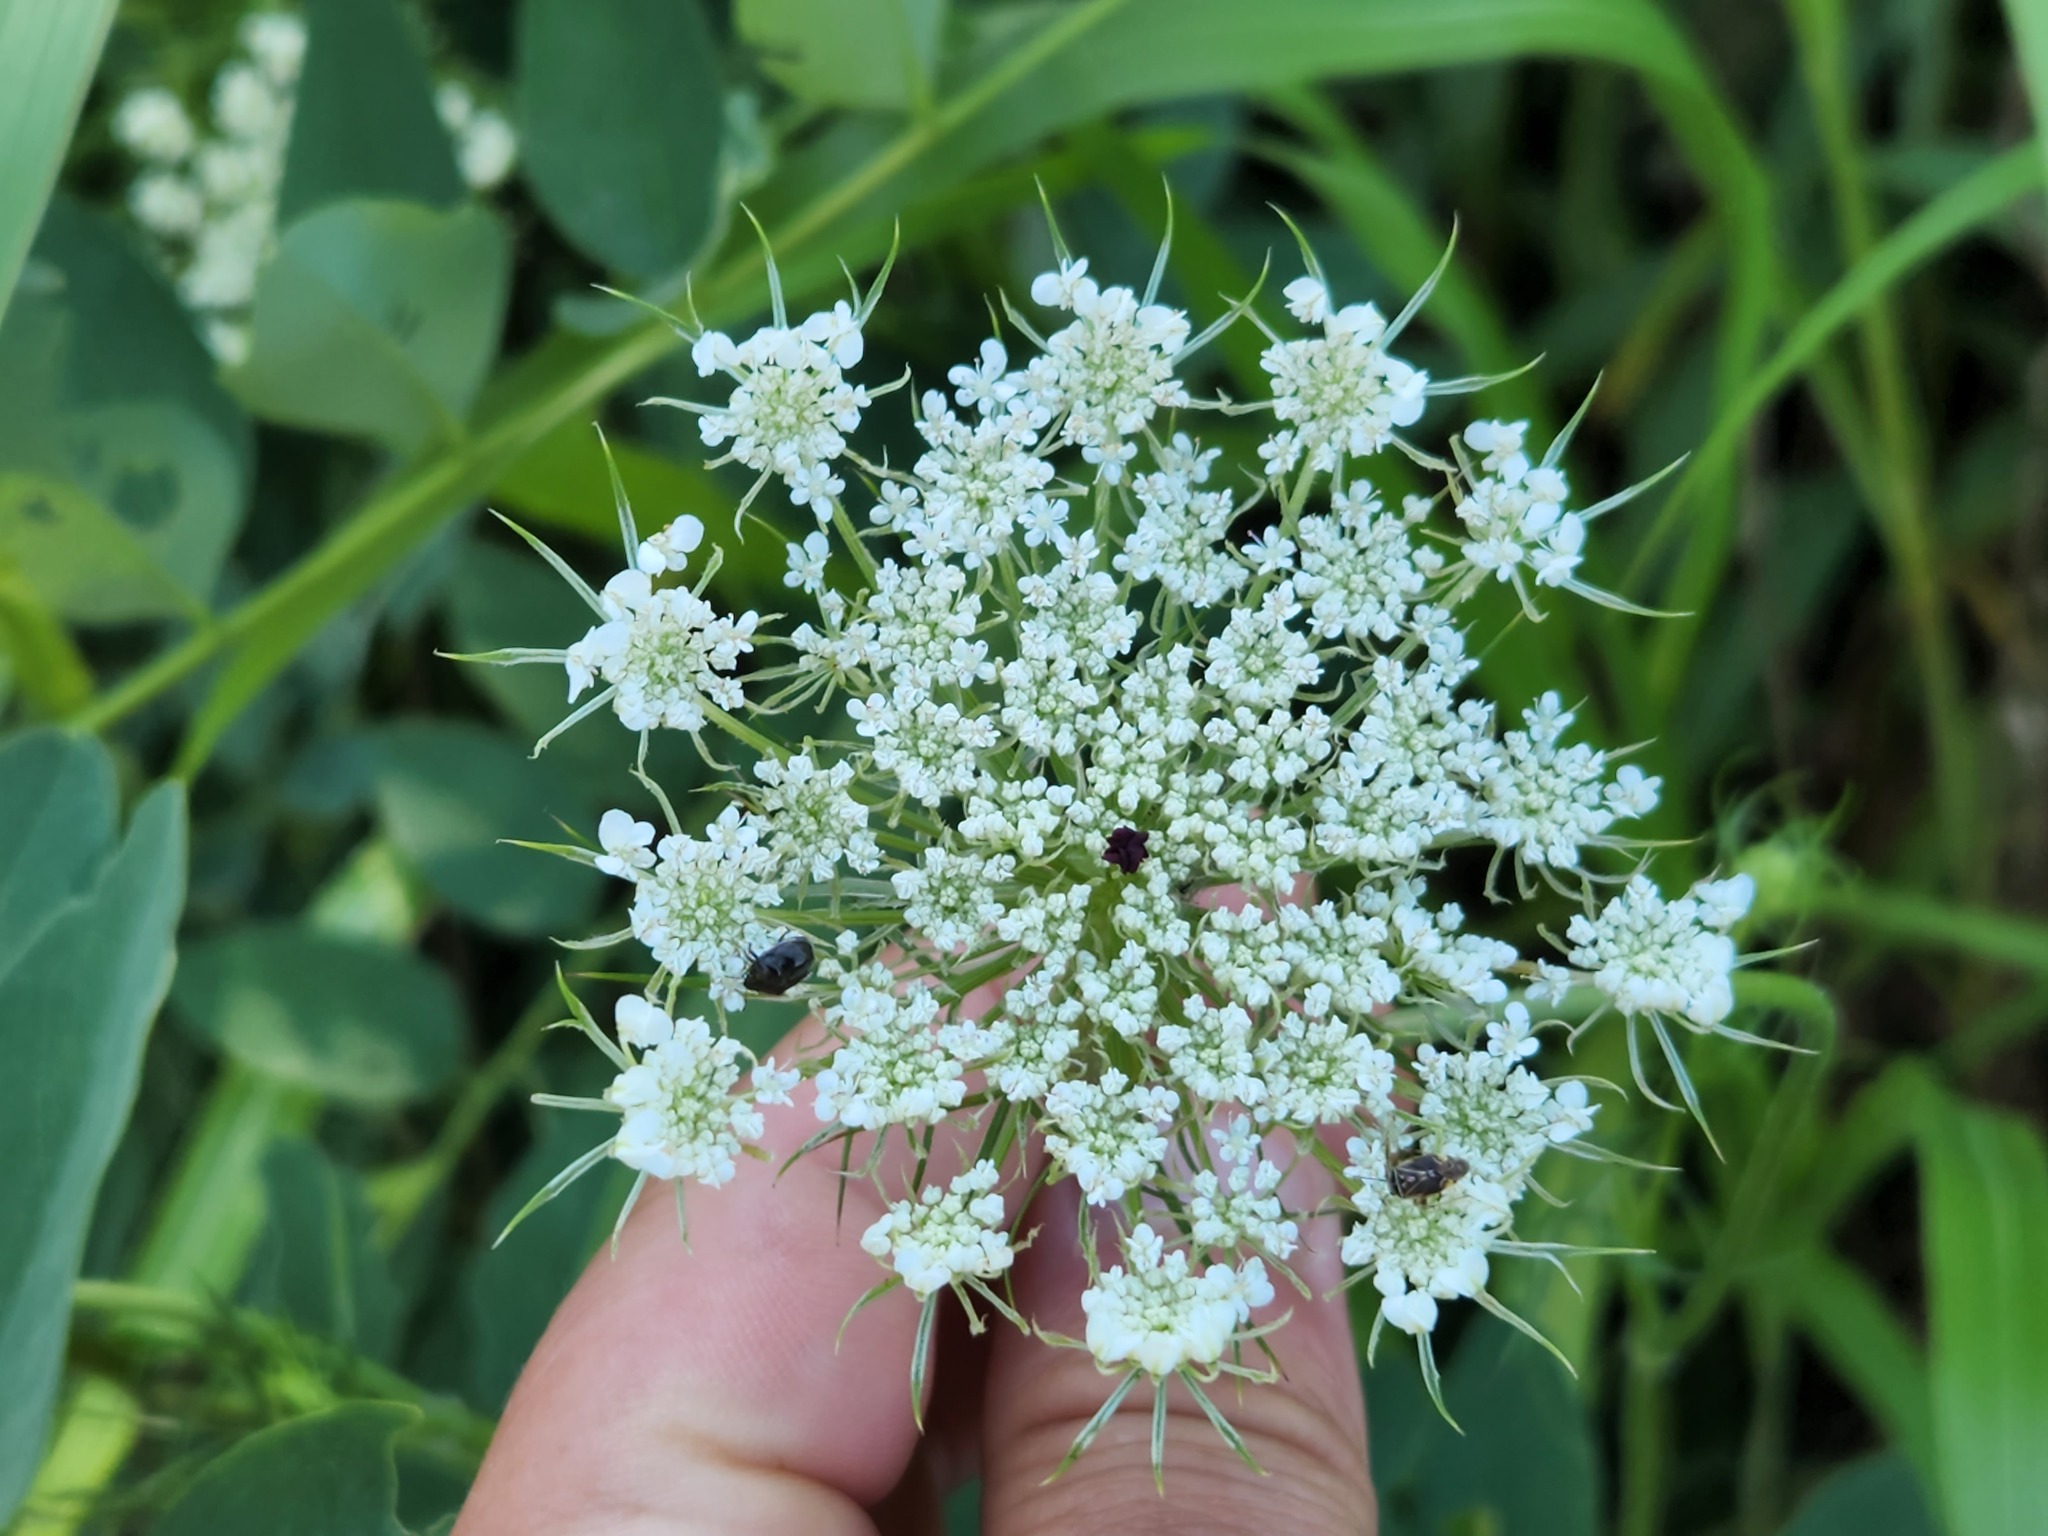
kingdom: Plantae
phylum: Tracheophyta
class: Magnoliopsida
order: Apiales
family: Apiaceae
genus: Daucus
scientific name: Daucus carota
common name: Wild carrot
